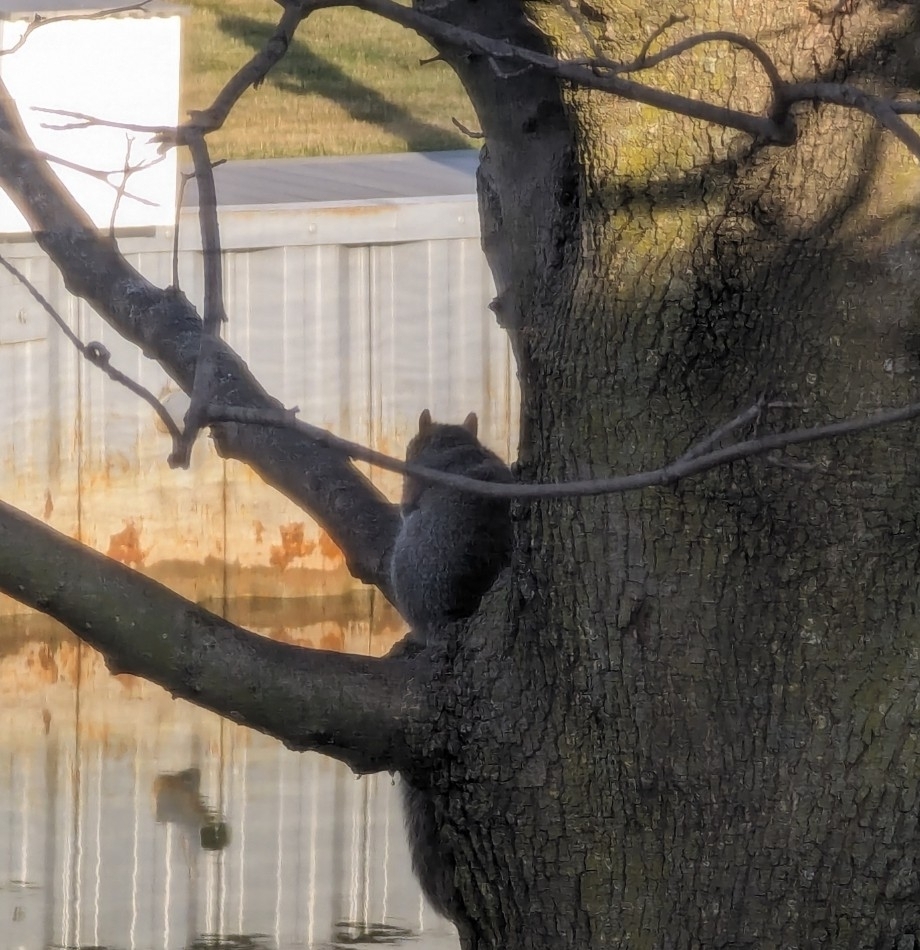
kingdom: Animalia
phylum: Chordata
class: Mammalia
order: Rodentia
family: Sciuridae
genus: Sciurus
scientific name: Sciurus carolinensis
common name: Eastern gray squirrel
